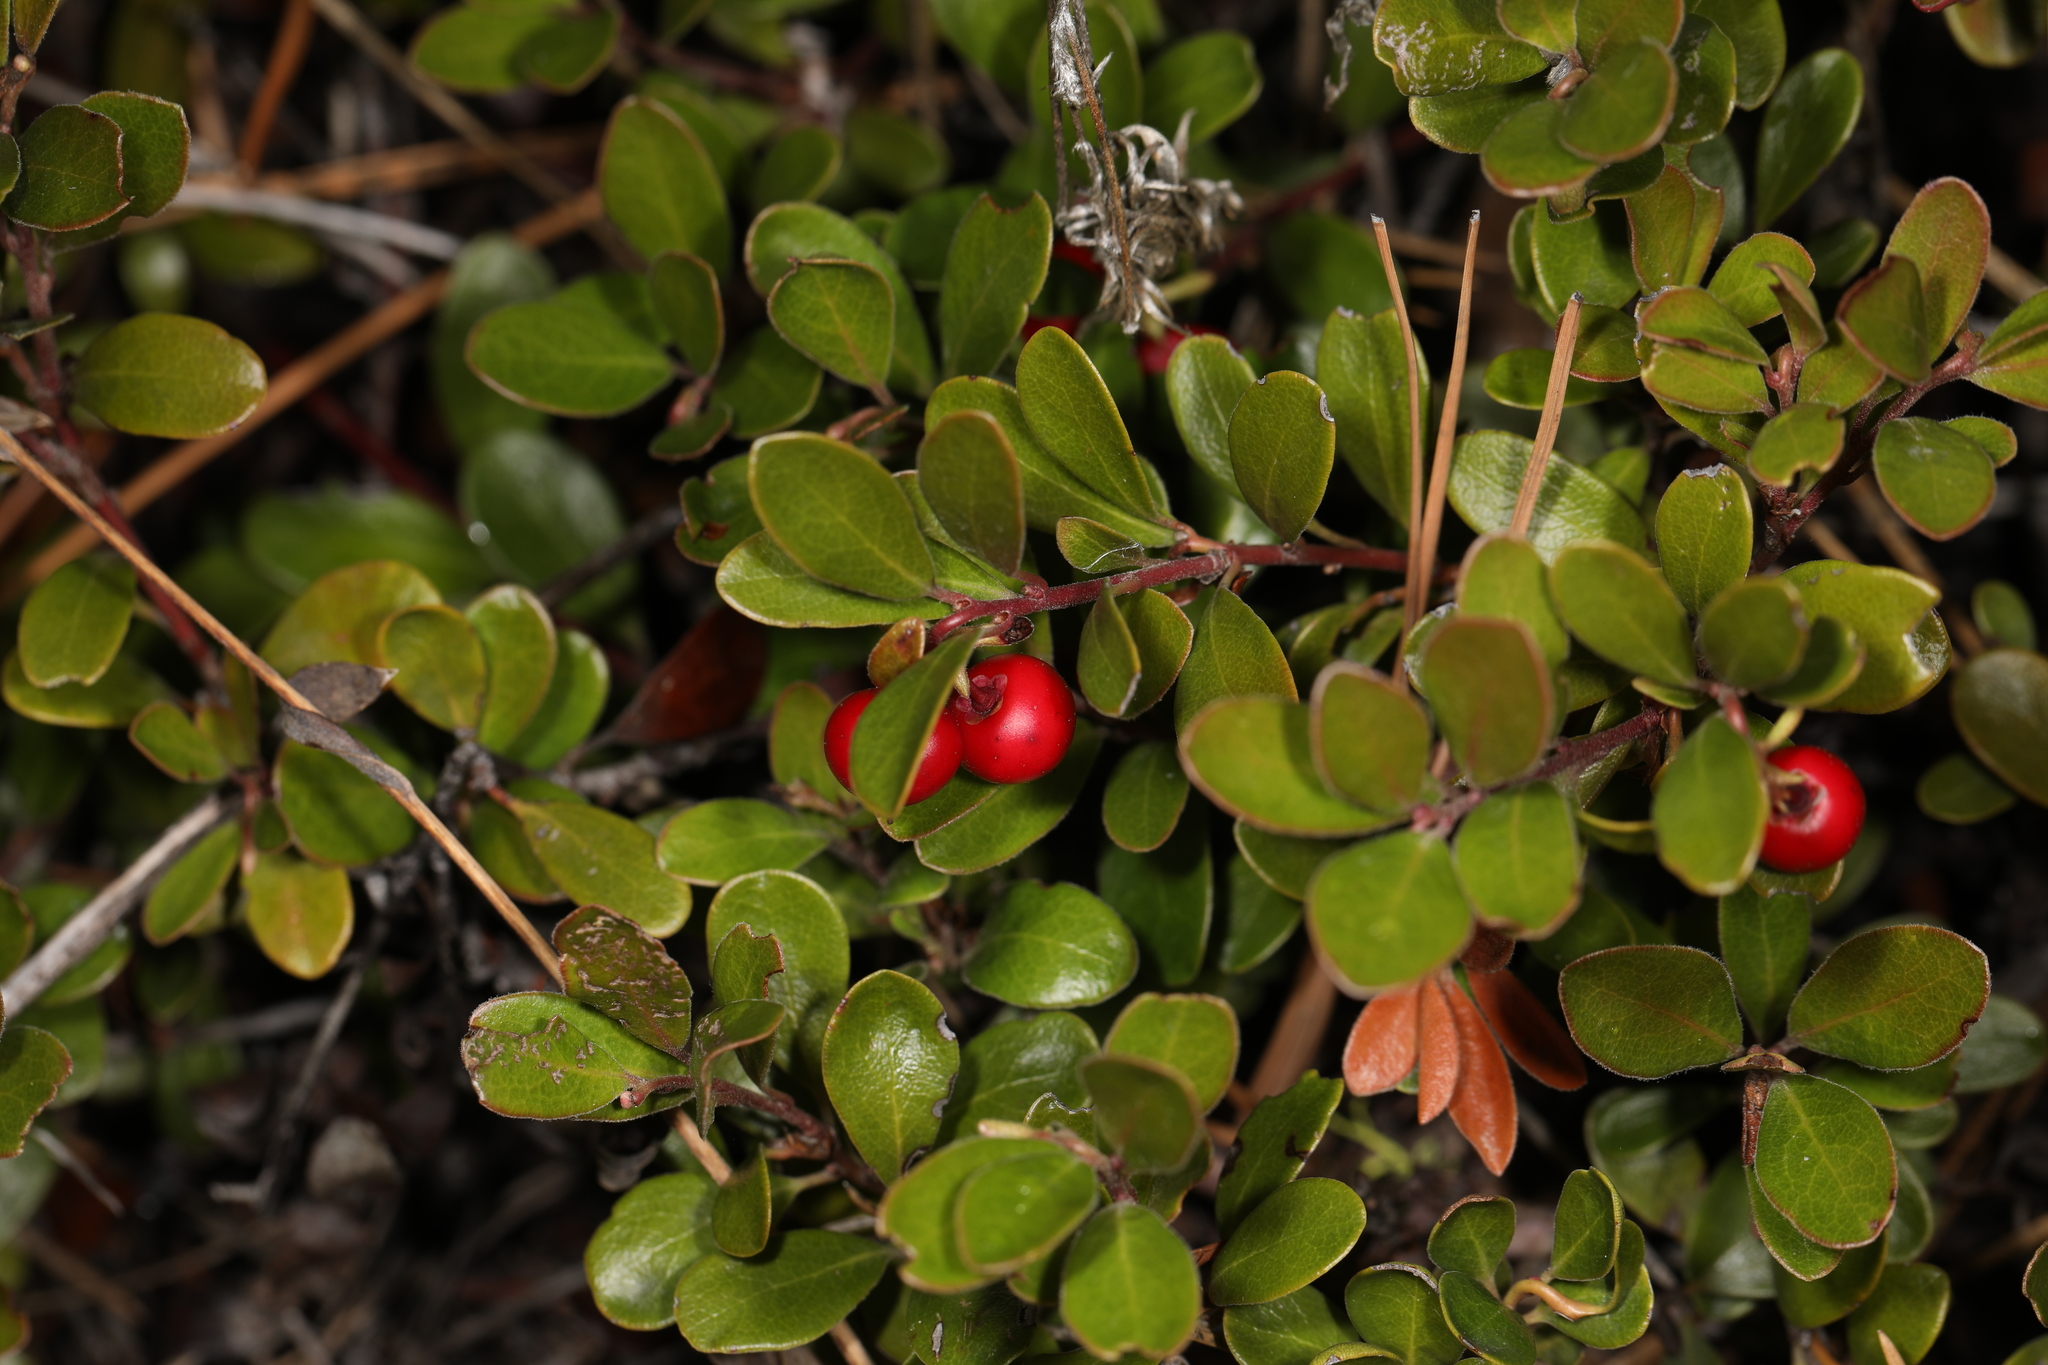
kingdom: Plantae
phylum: Tracheophyta
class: Magnoliopsida
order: Ericales
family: Ericaceae
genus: Arctostaphylos
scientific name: Arctostaphylos uva-ursi
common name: Bearberry
